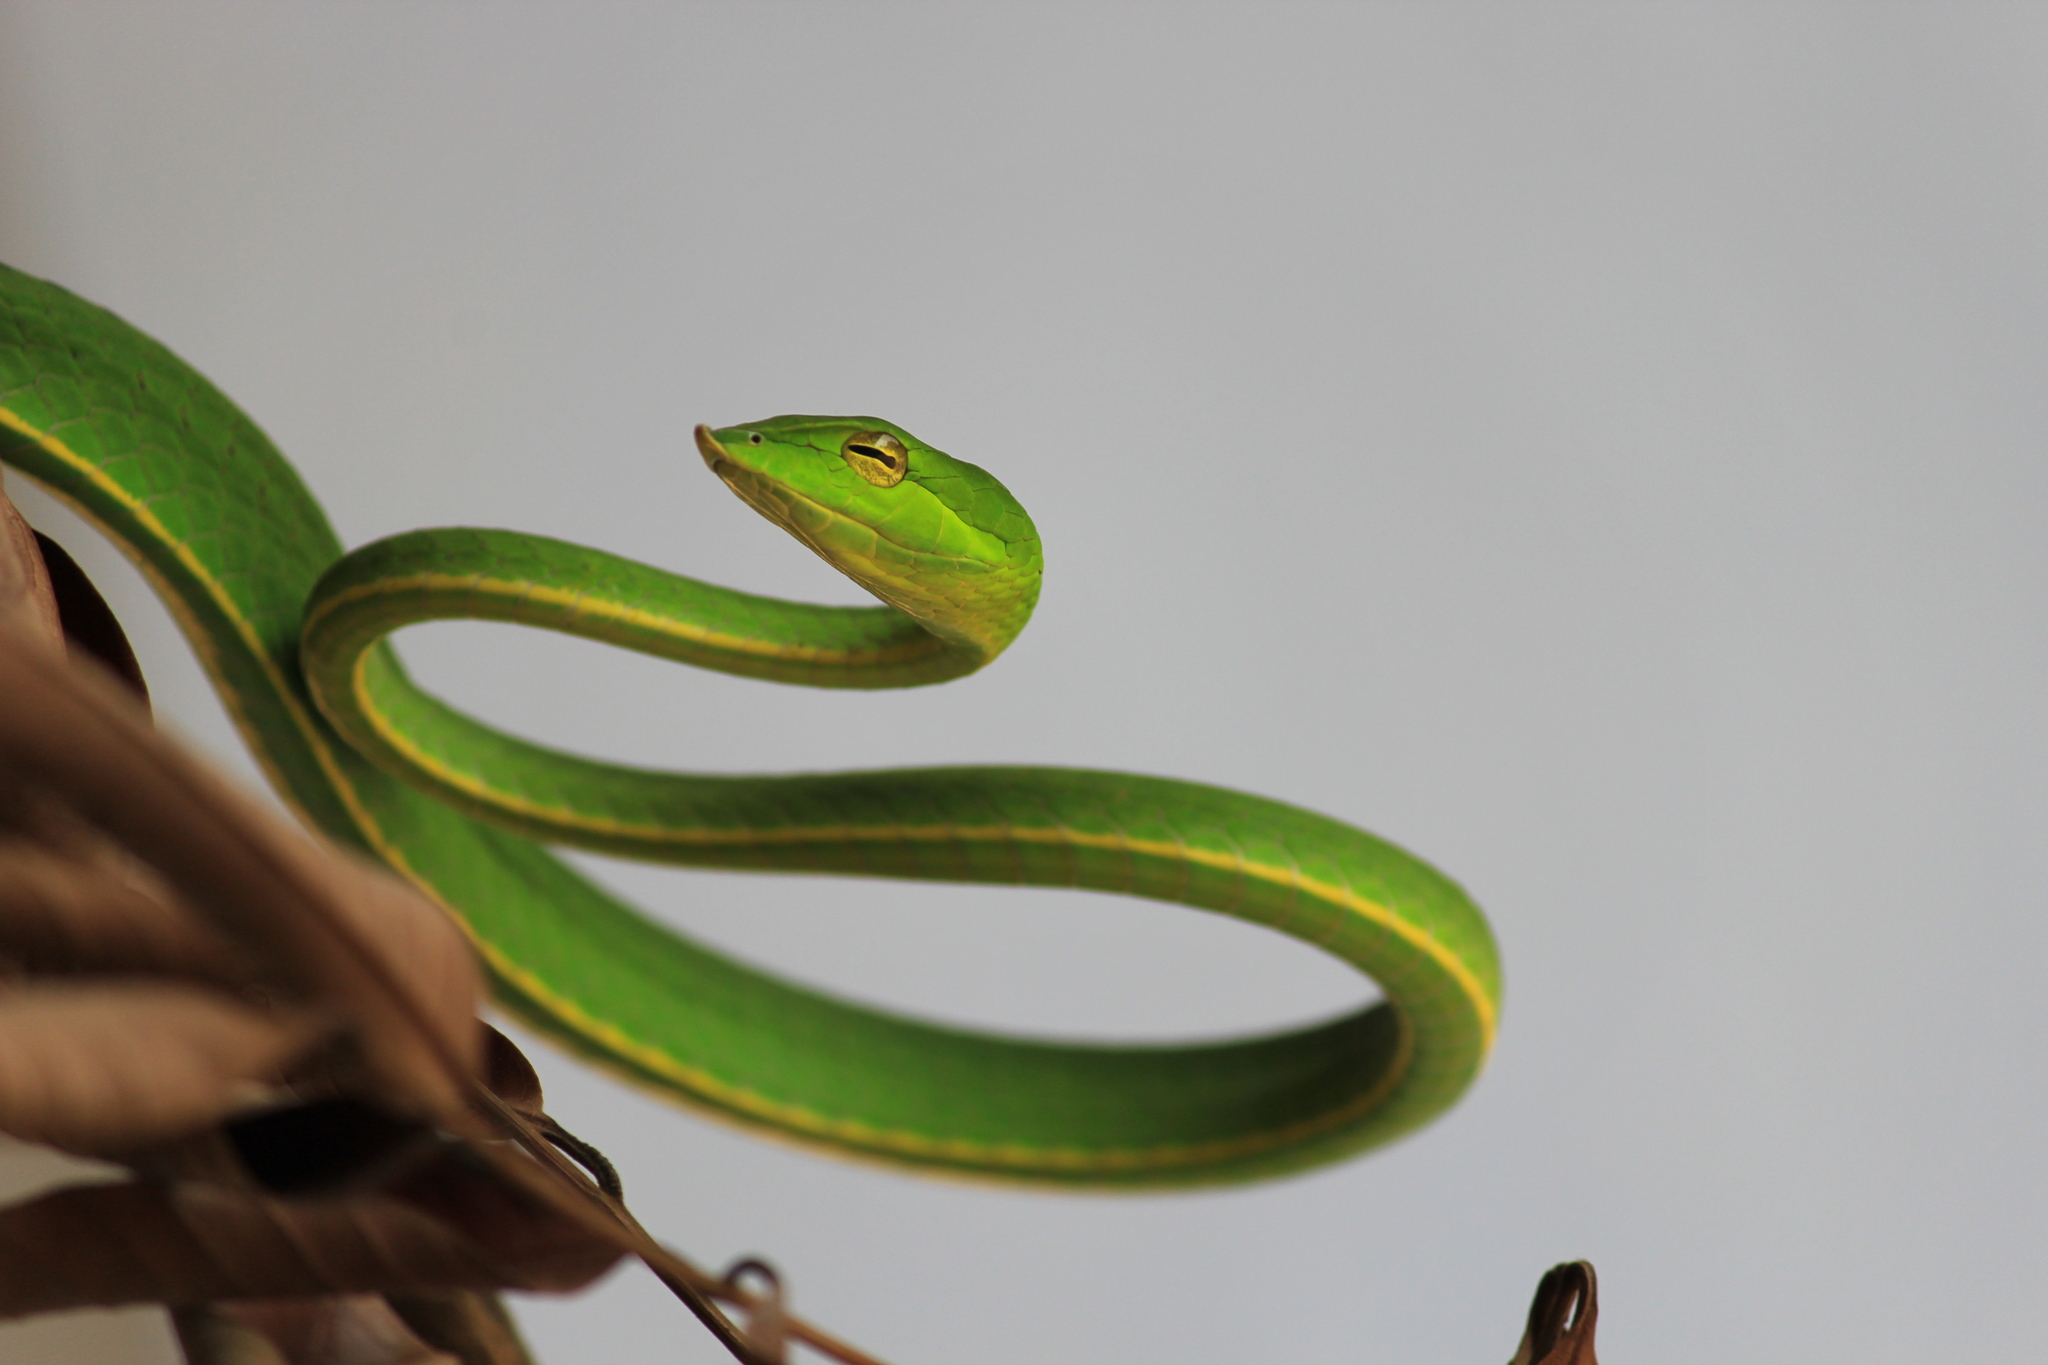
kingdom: Animalia
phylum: Chordata
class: Squamata
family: Colubridae
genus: Ahaetulla
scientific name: Ahaetulla farnsworthi
